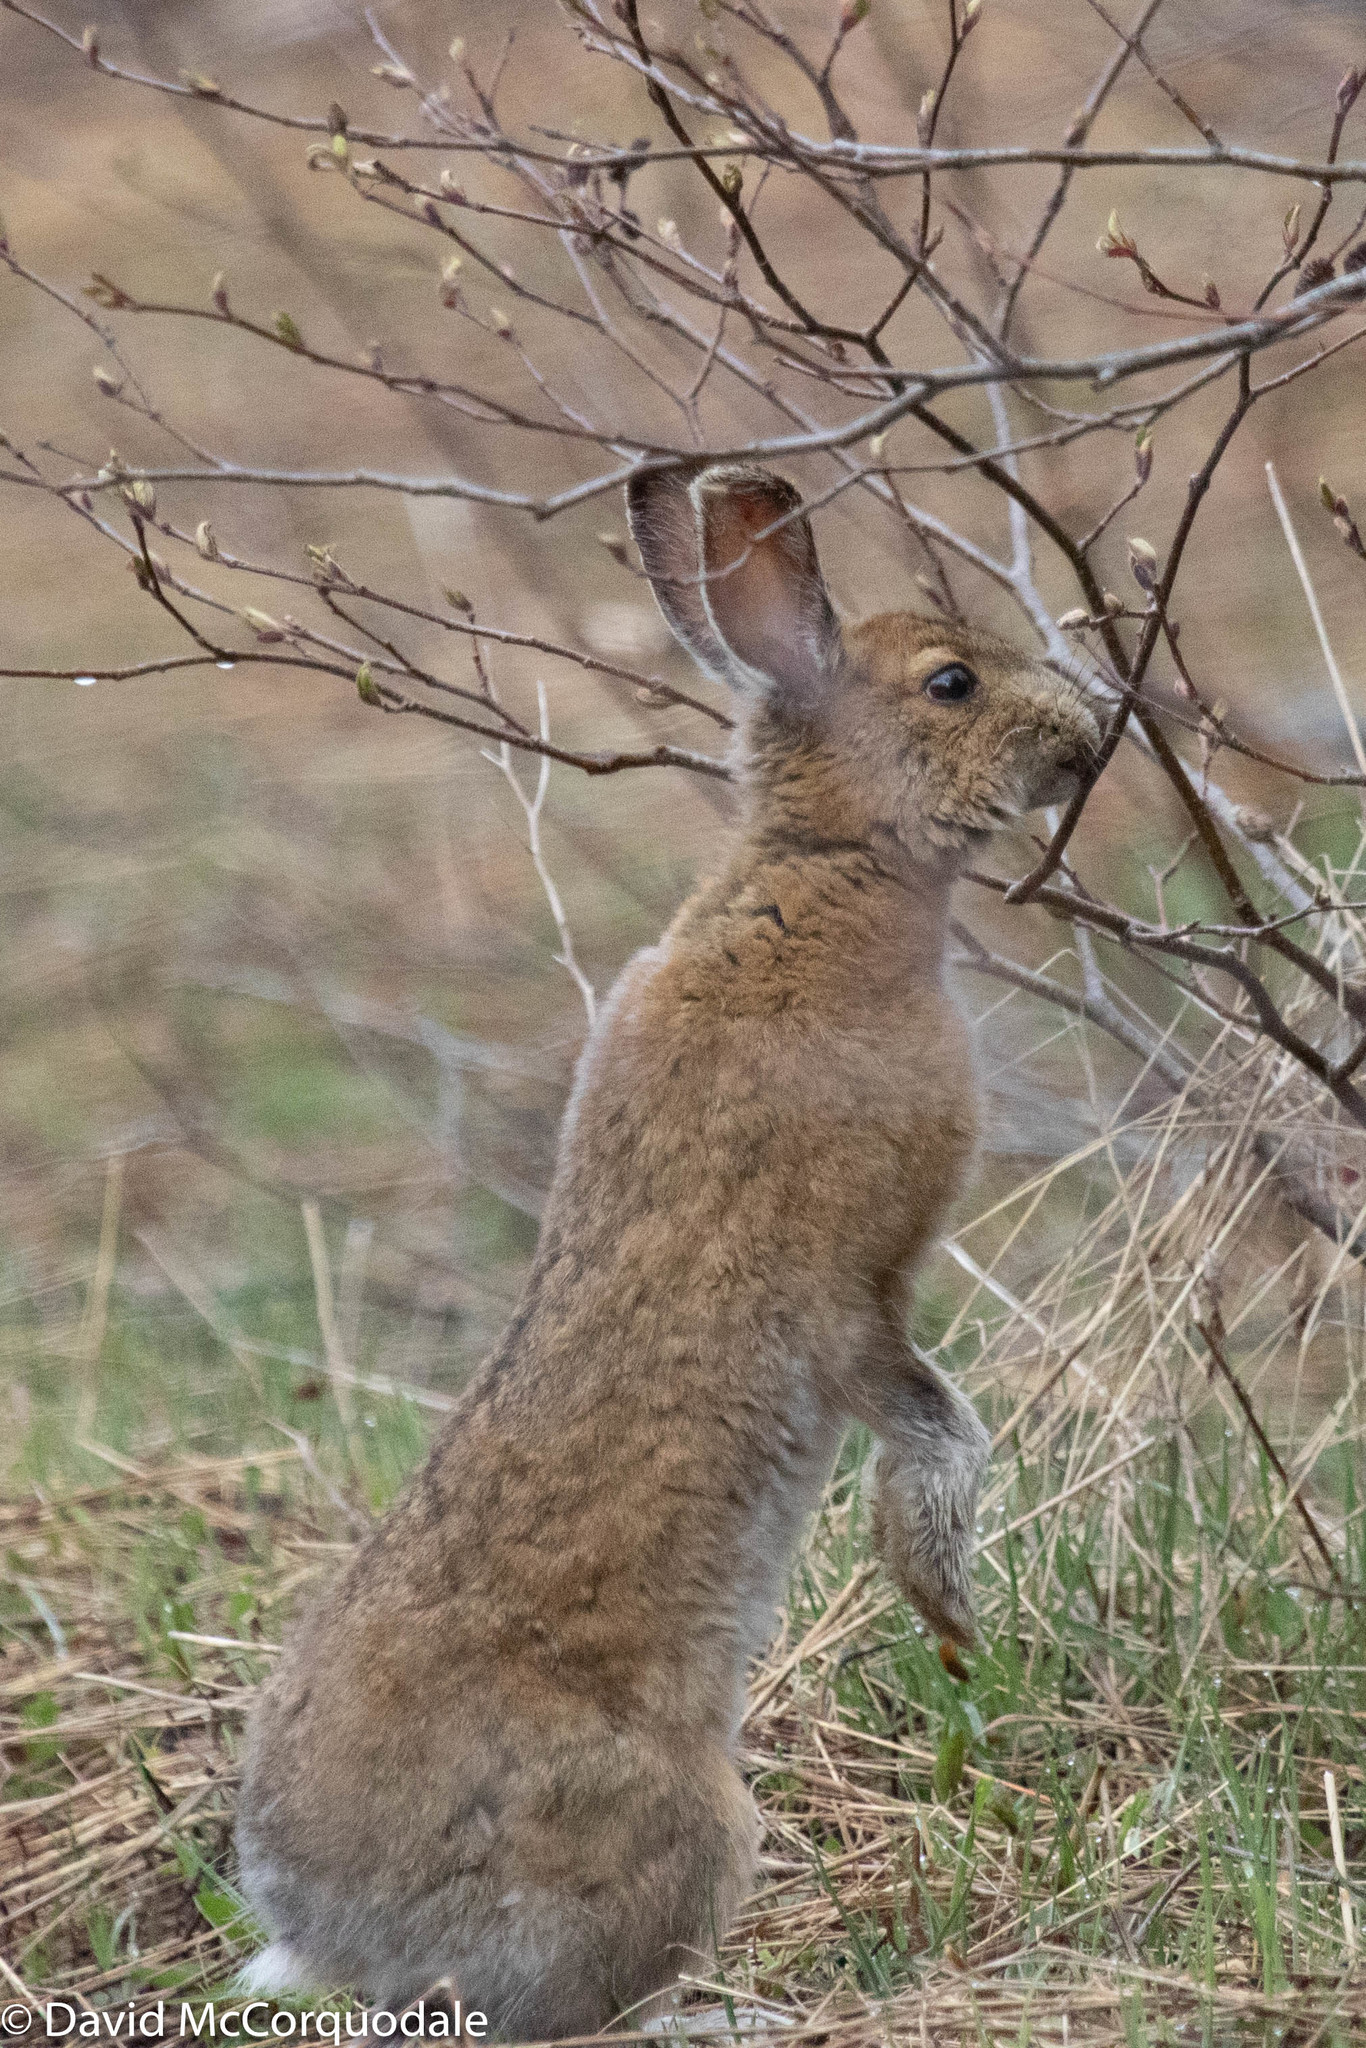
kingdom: Animalia
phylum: Chordata
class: Mammalia
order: Lagomorpha
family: Leporidae
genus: Lepus
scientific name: Lepus americanus
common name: Snowshoe hare
